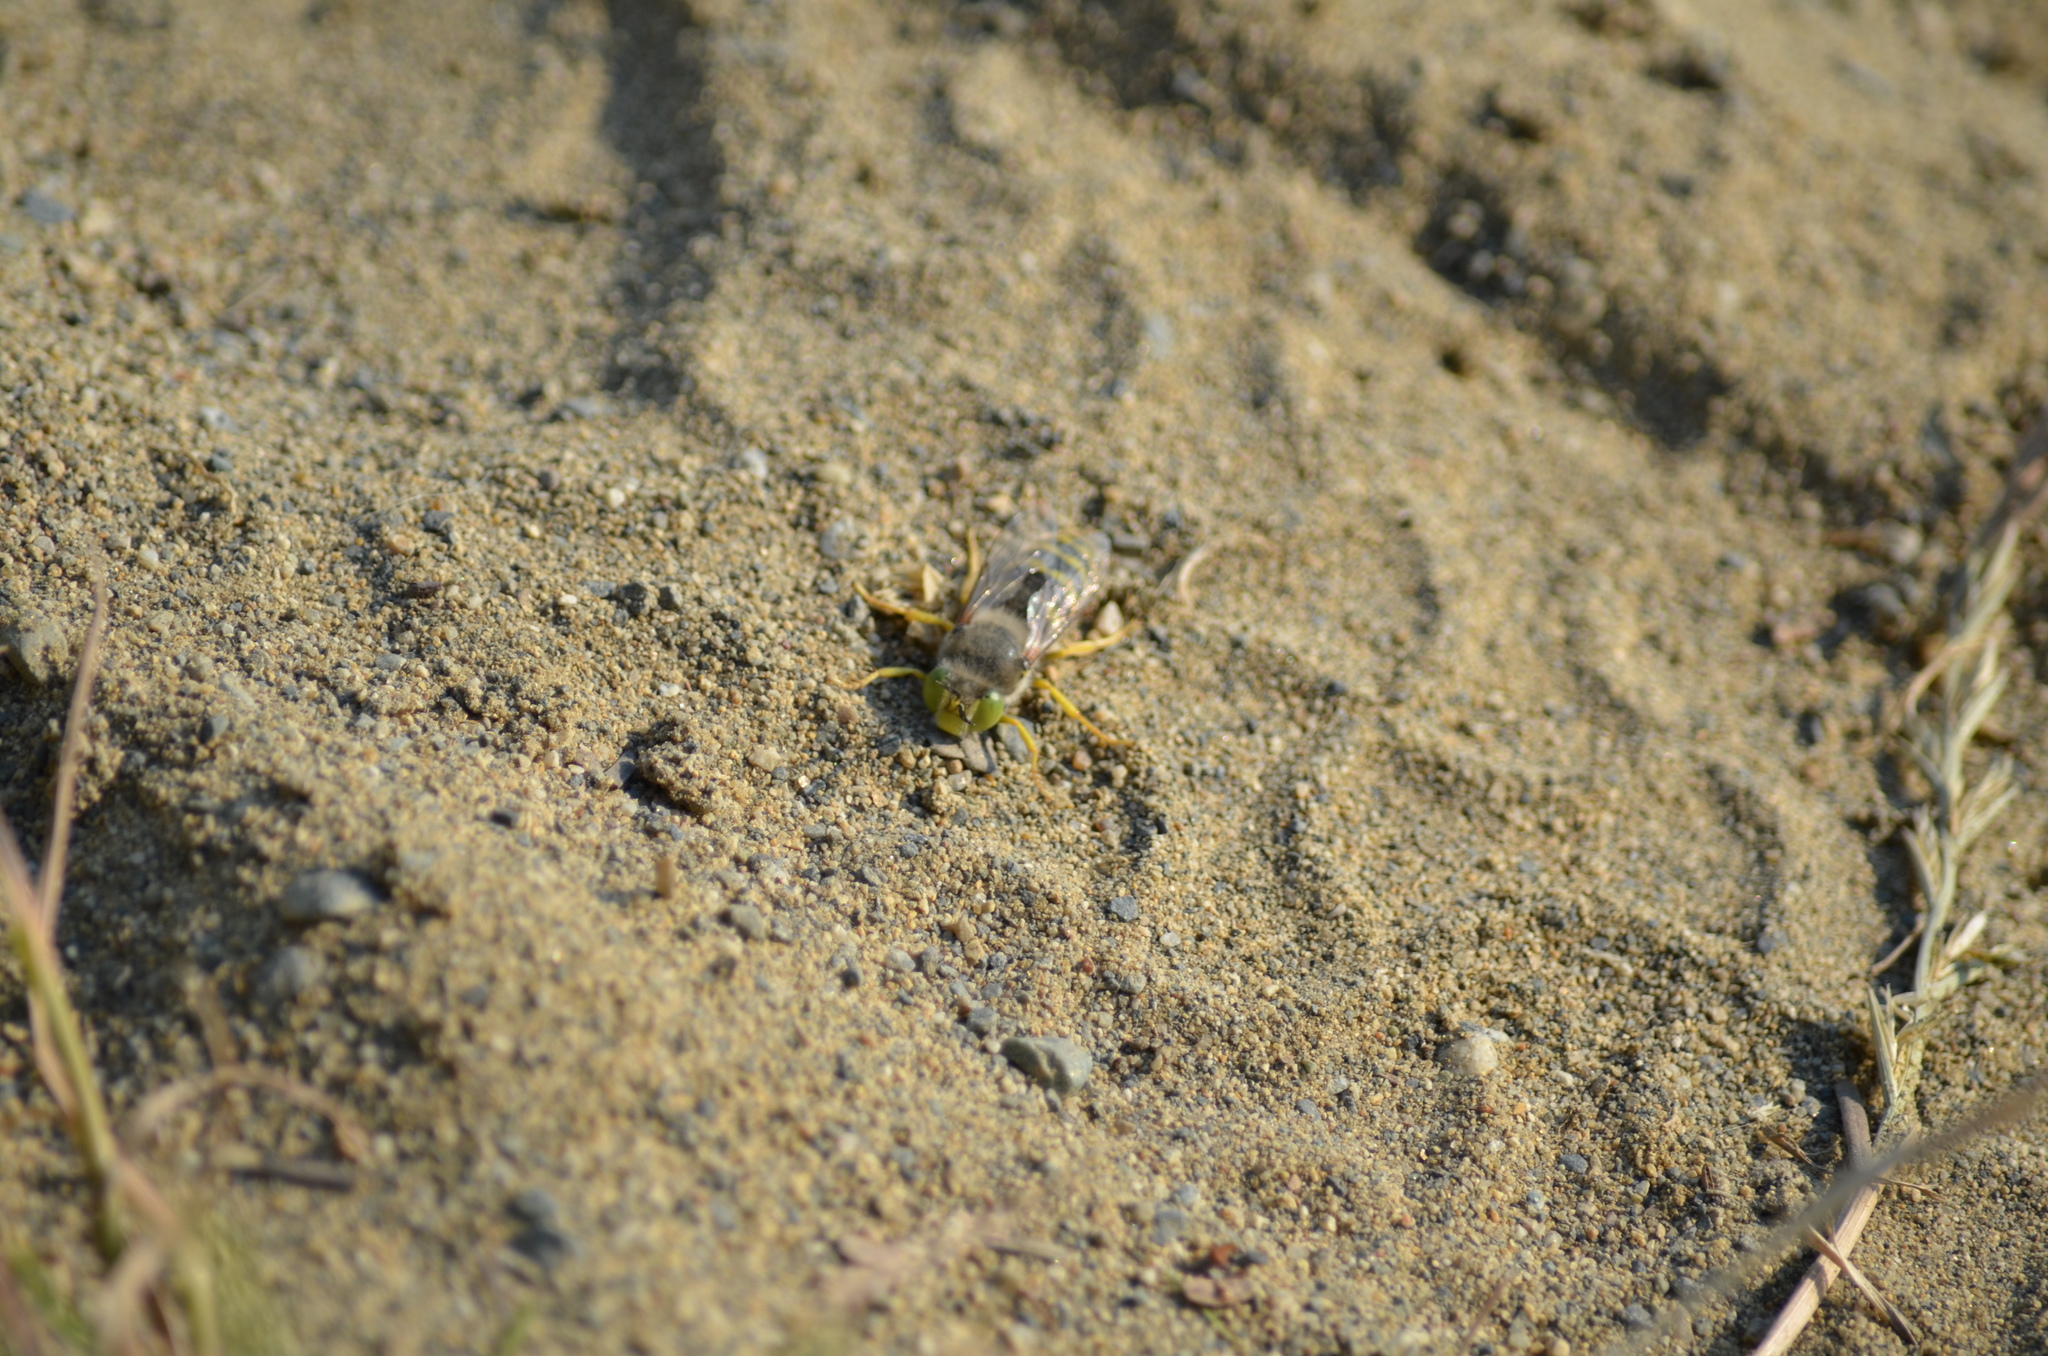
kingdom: Animalia
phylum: Arthropoda
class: Insecta
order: Hymenoptera
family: Crabronidae
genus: Bembix
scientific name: Bembix americana
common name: American sand wasp
